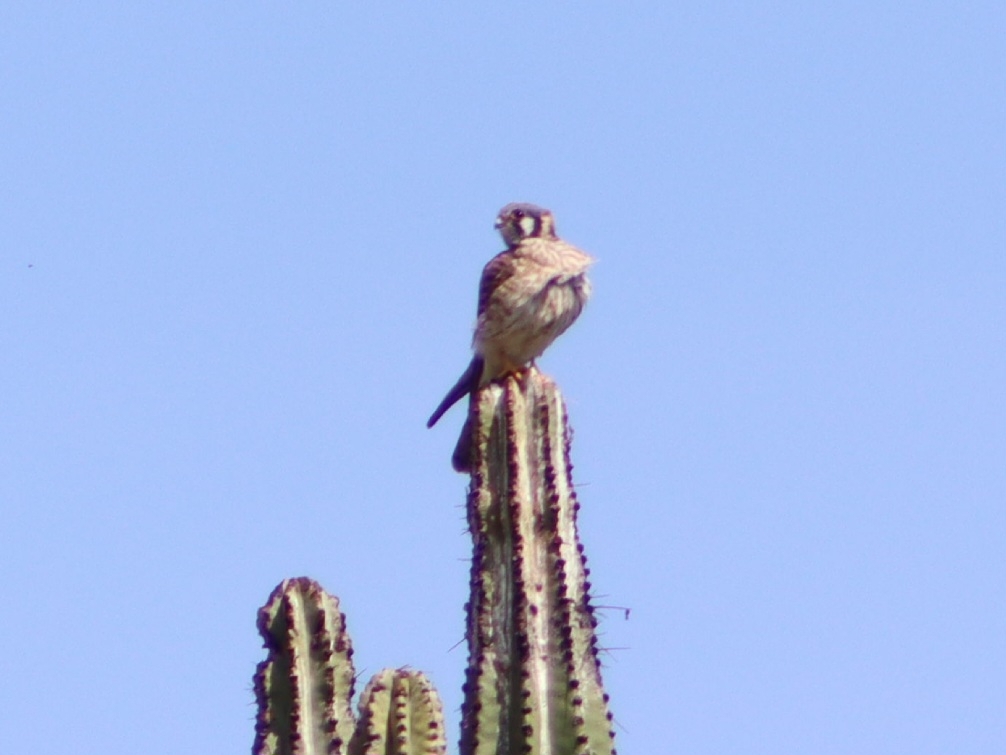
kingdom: Animalia
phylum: Chordata
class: Aves
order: Falconiformes
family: Falconidae
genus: Falco
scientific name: Falco sparverius
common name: American kestrel
